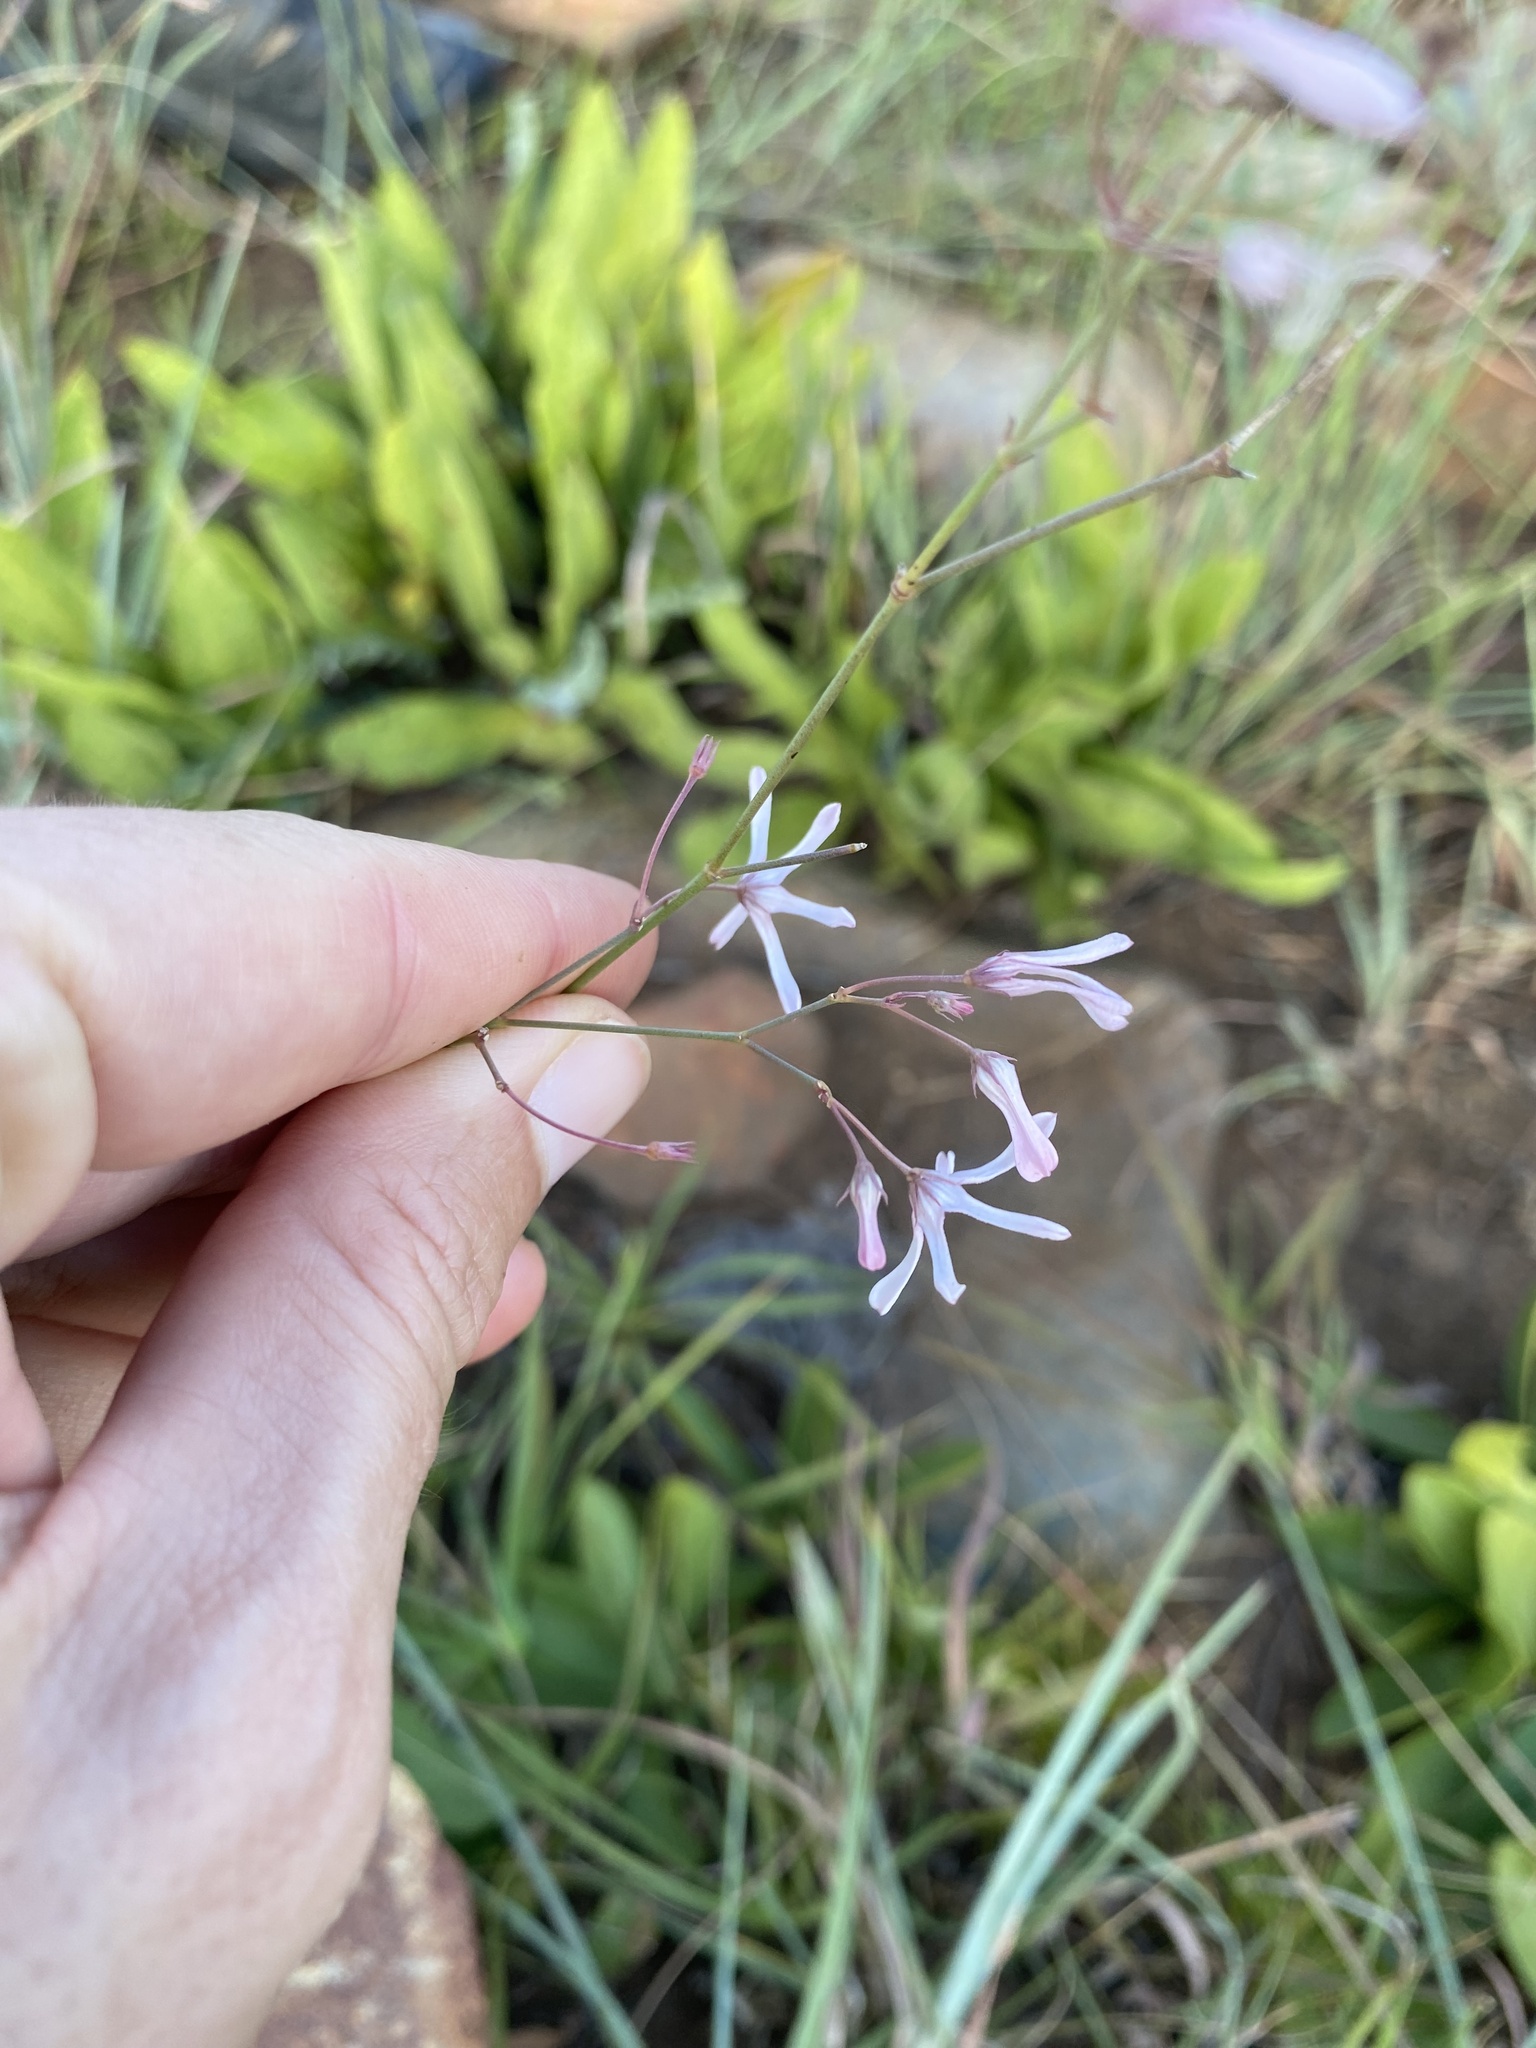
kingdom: Plantae
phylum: Tracheophyta
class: Magnoliopsida
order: Gentianales
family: Apocynaceae
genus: Ceropegia
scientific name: Ceropegia rubella
